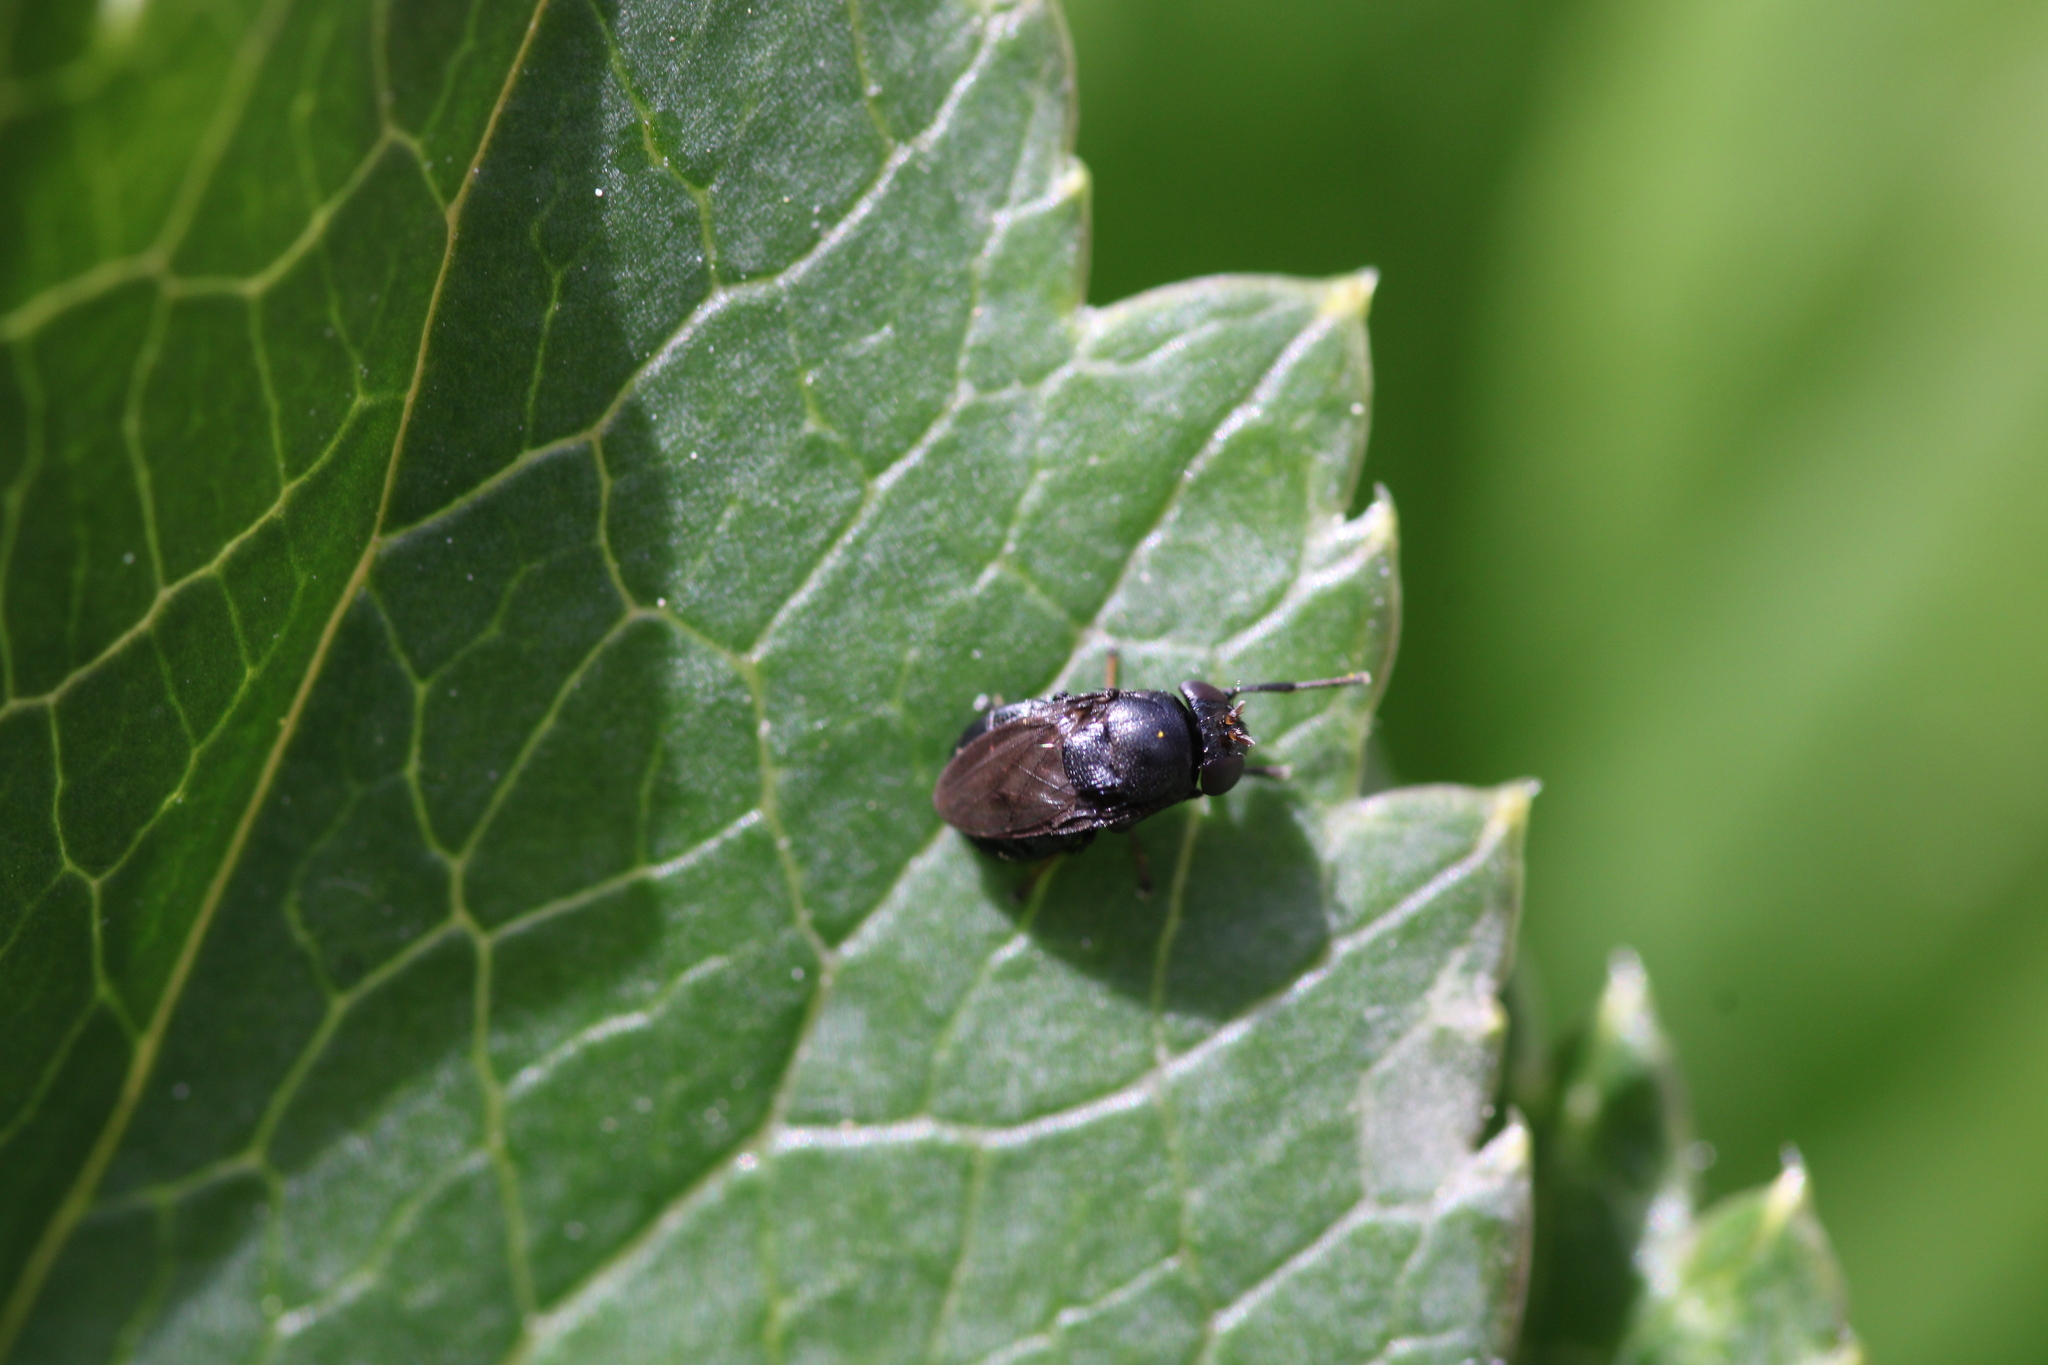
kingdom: Animalia
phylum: Arthropoda
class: Insecta
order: Diptera
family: Ephydridae
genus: Discomyza
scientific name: Discomyza incurva
